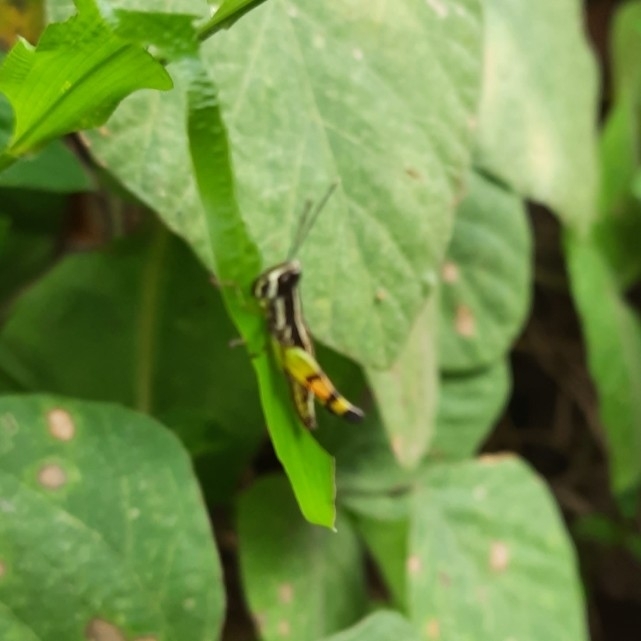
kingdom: Animalia
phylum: Arthropoda
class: Insecta
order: Orthoptera
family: Acrididae
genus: Chitaura
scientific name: Chitaura indica
